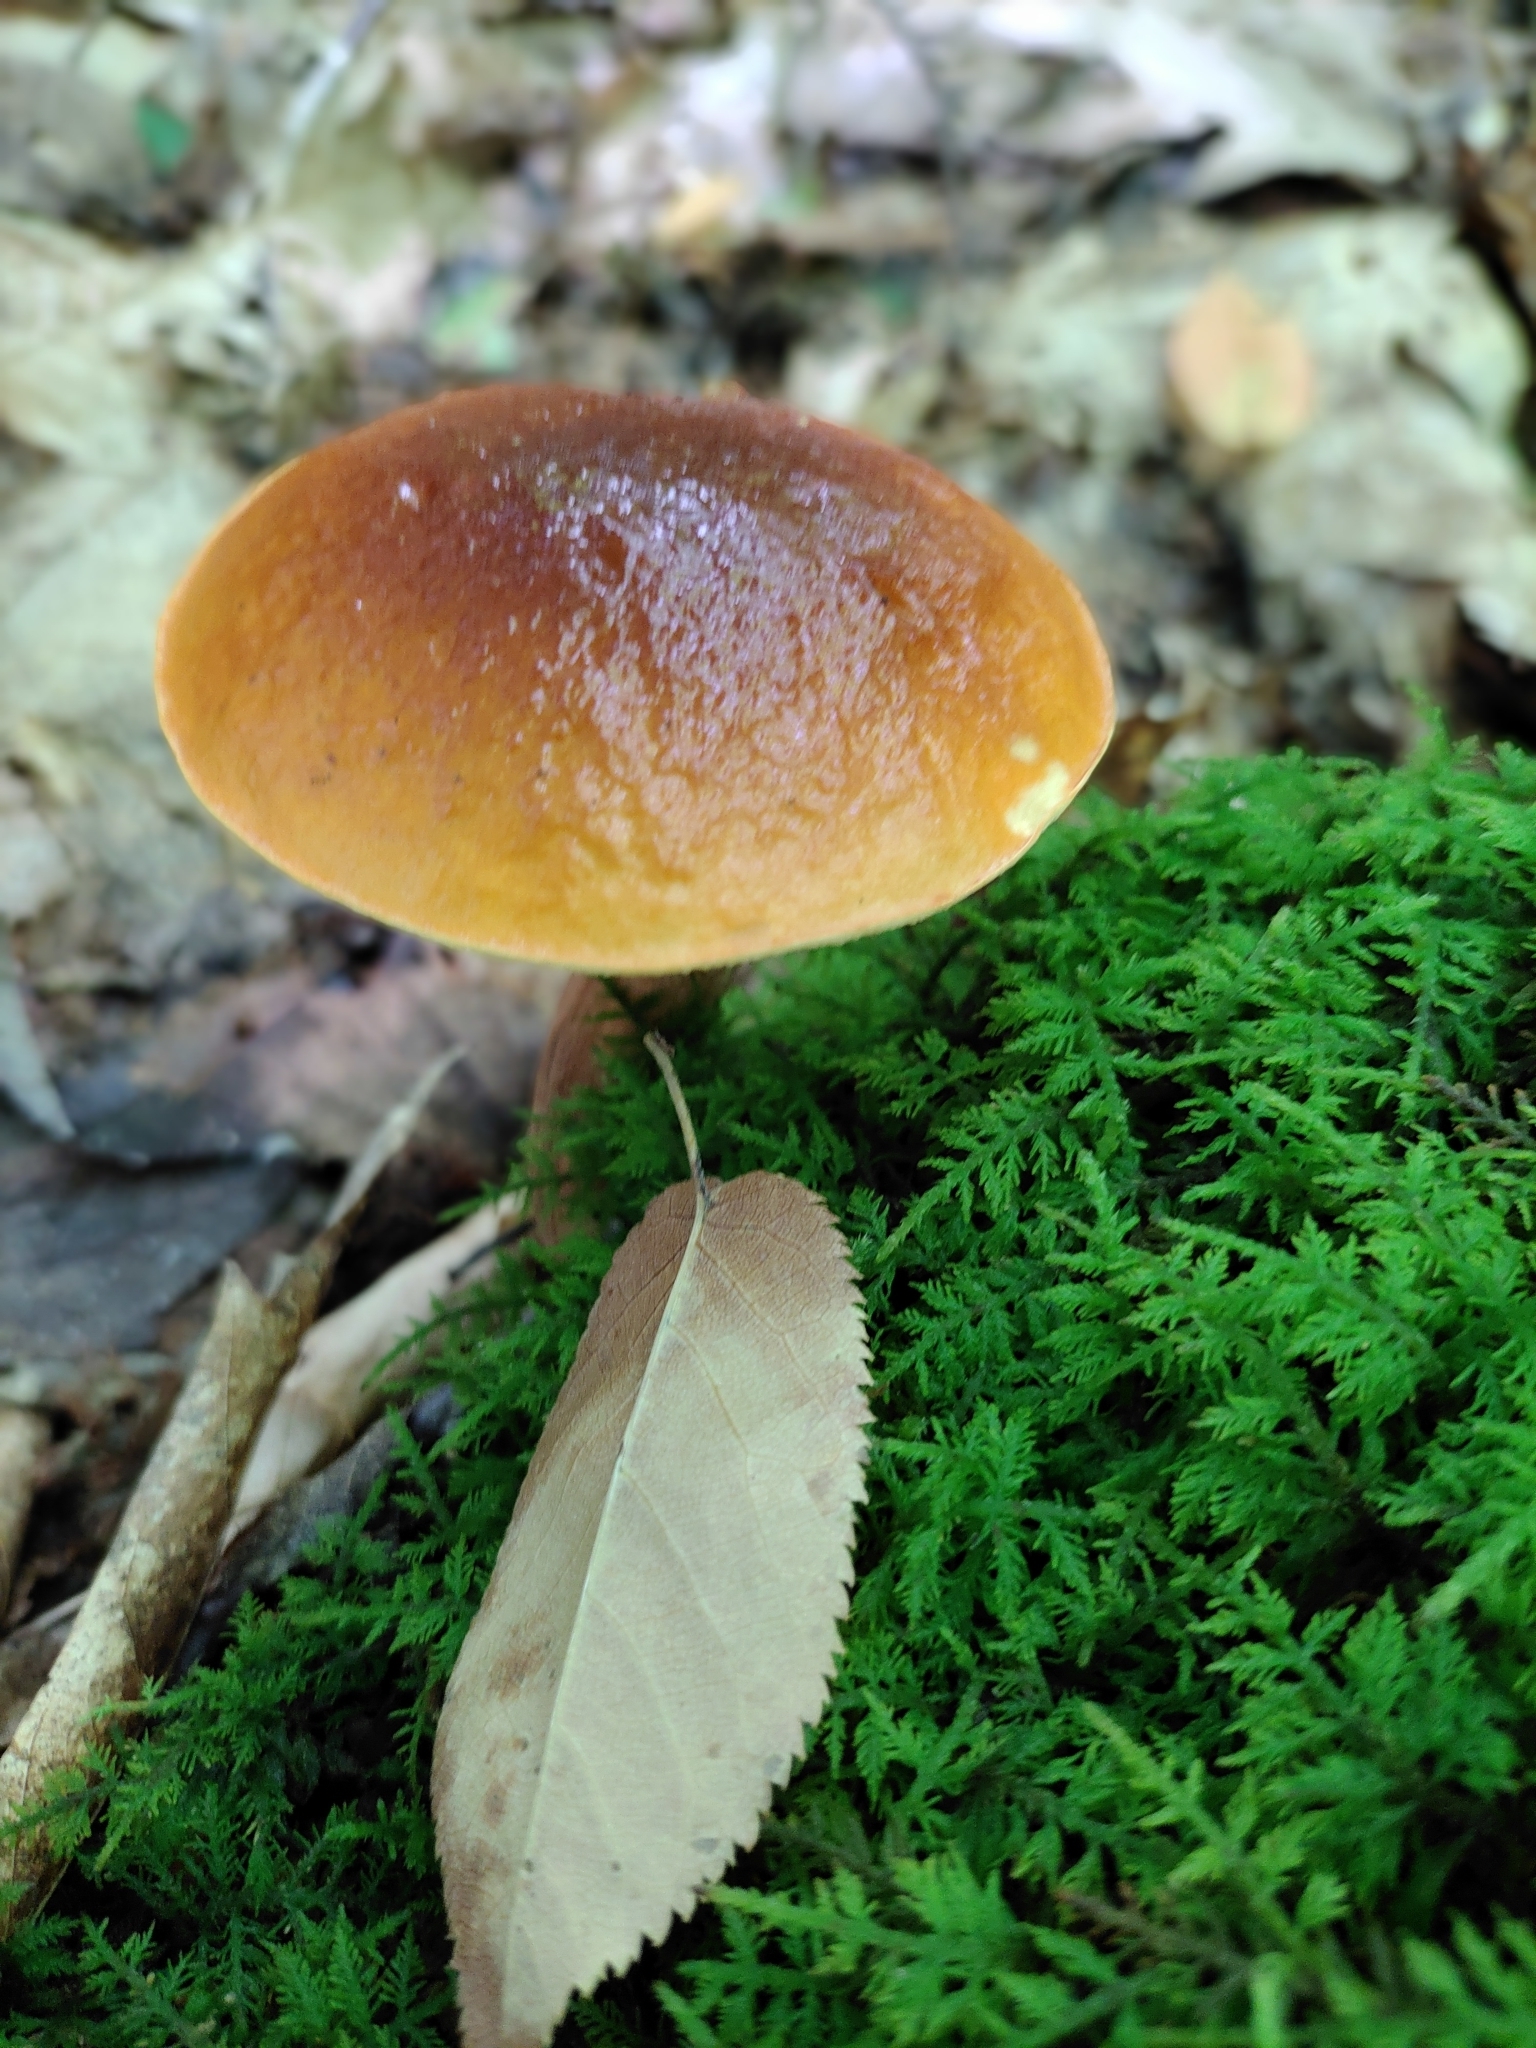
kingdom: Fungi
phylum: Basidiomycota
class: Agaricomycetes
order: Boletales
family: Boletaceae
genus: Hemileccinum
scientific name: Hemileccinum rubropunctum
